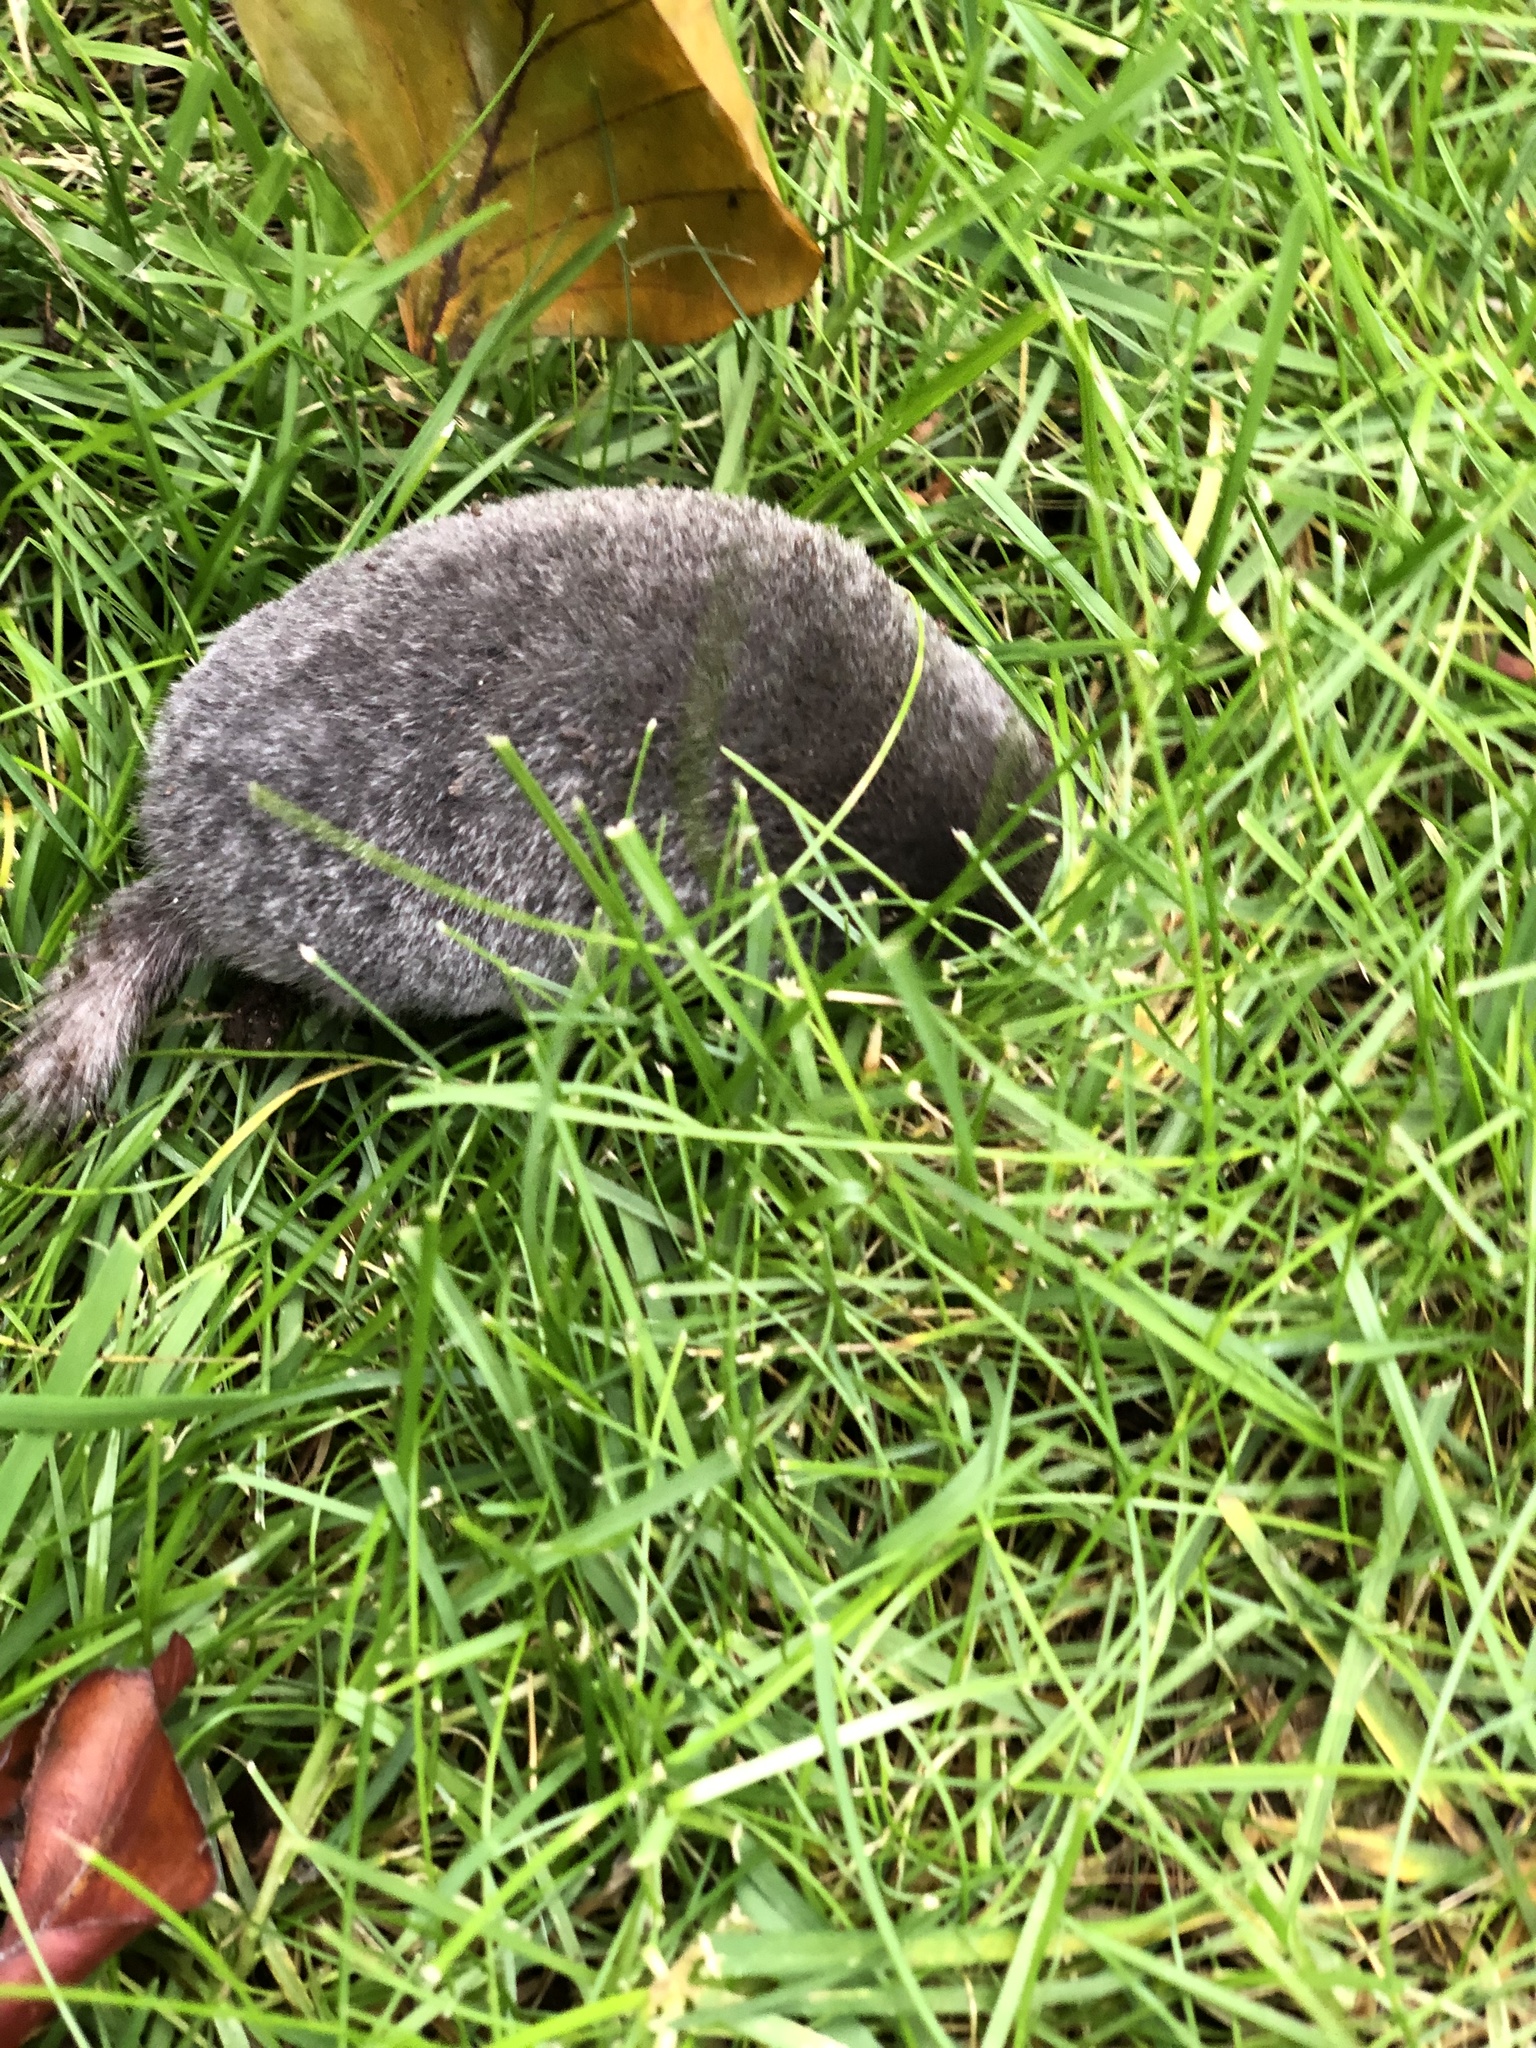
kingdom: Animalia
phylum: Chordata
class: Mammalia
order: Soricomorpha
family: Talpidae
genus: Parascalops
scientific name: Parascalops breweri
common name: Hairy-tailed mole
